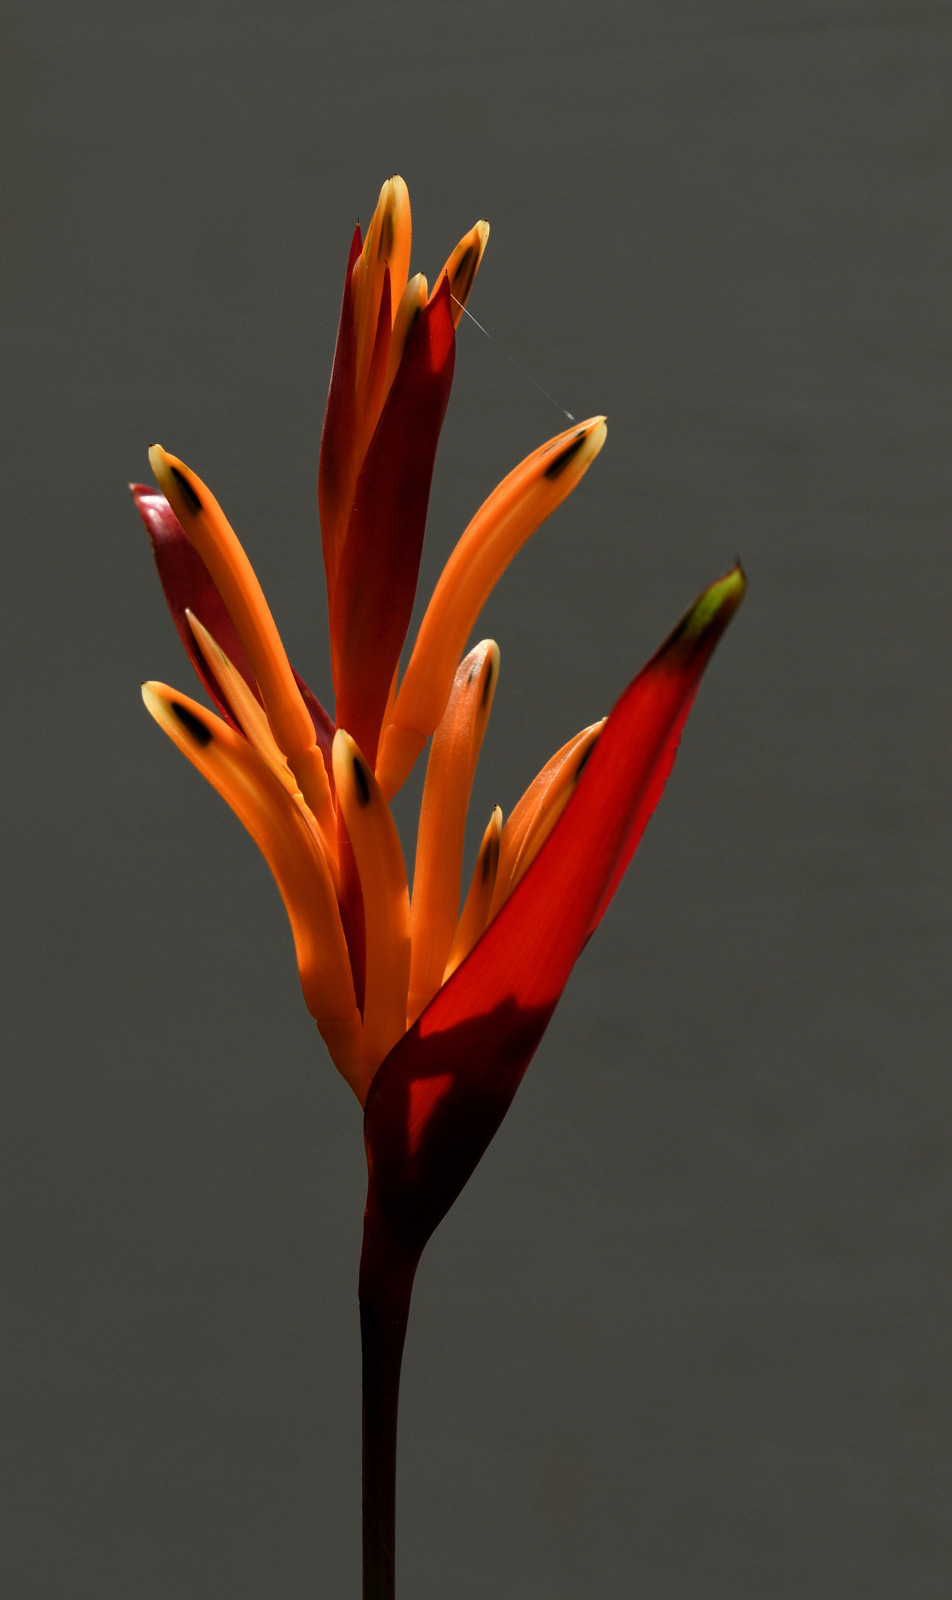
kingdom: Plantae
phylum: Tracheophyta
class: Liliopsida
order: Zingiberales
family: Heliconiaceae
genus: Heliconia
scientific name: Heliconia psittacorum
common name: Parrot's-flower
